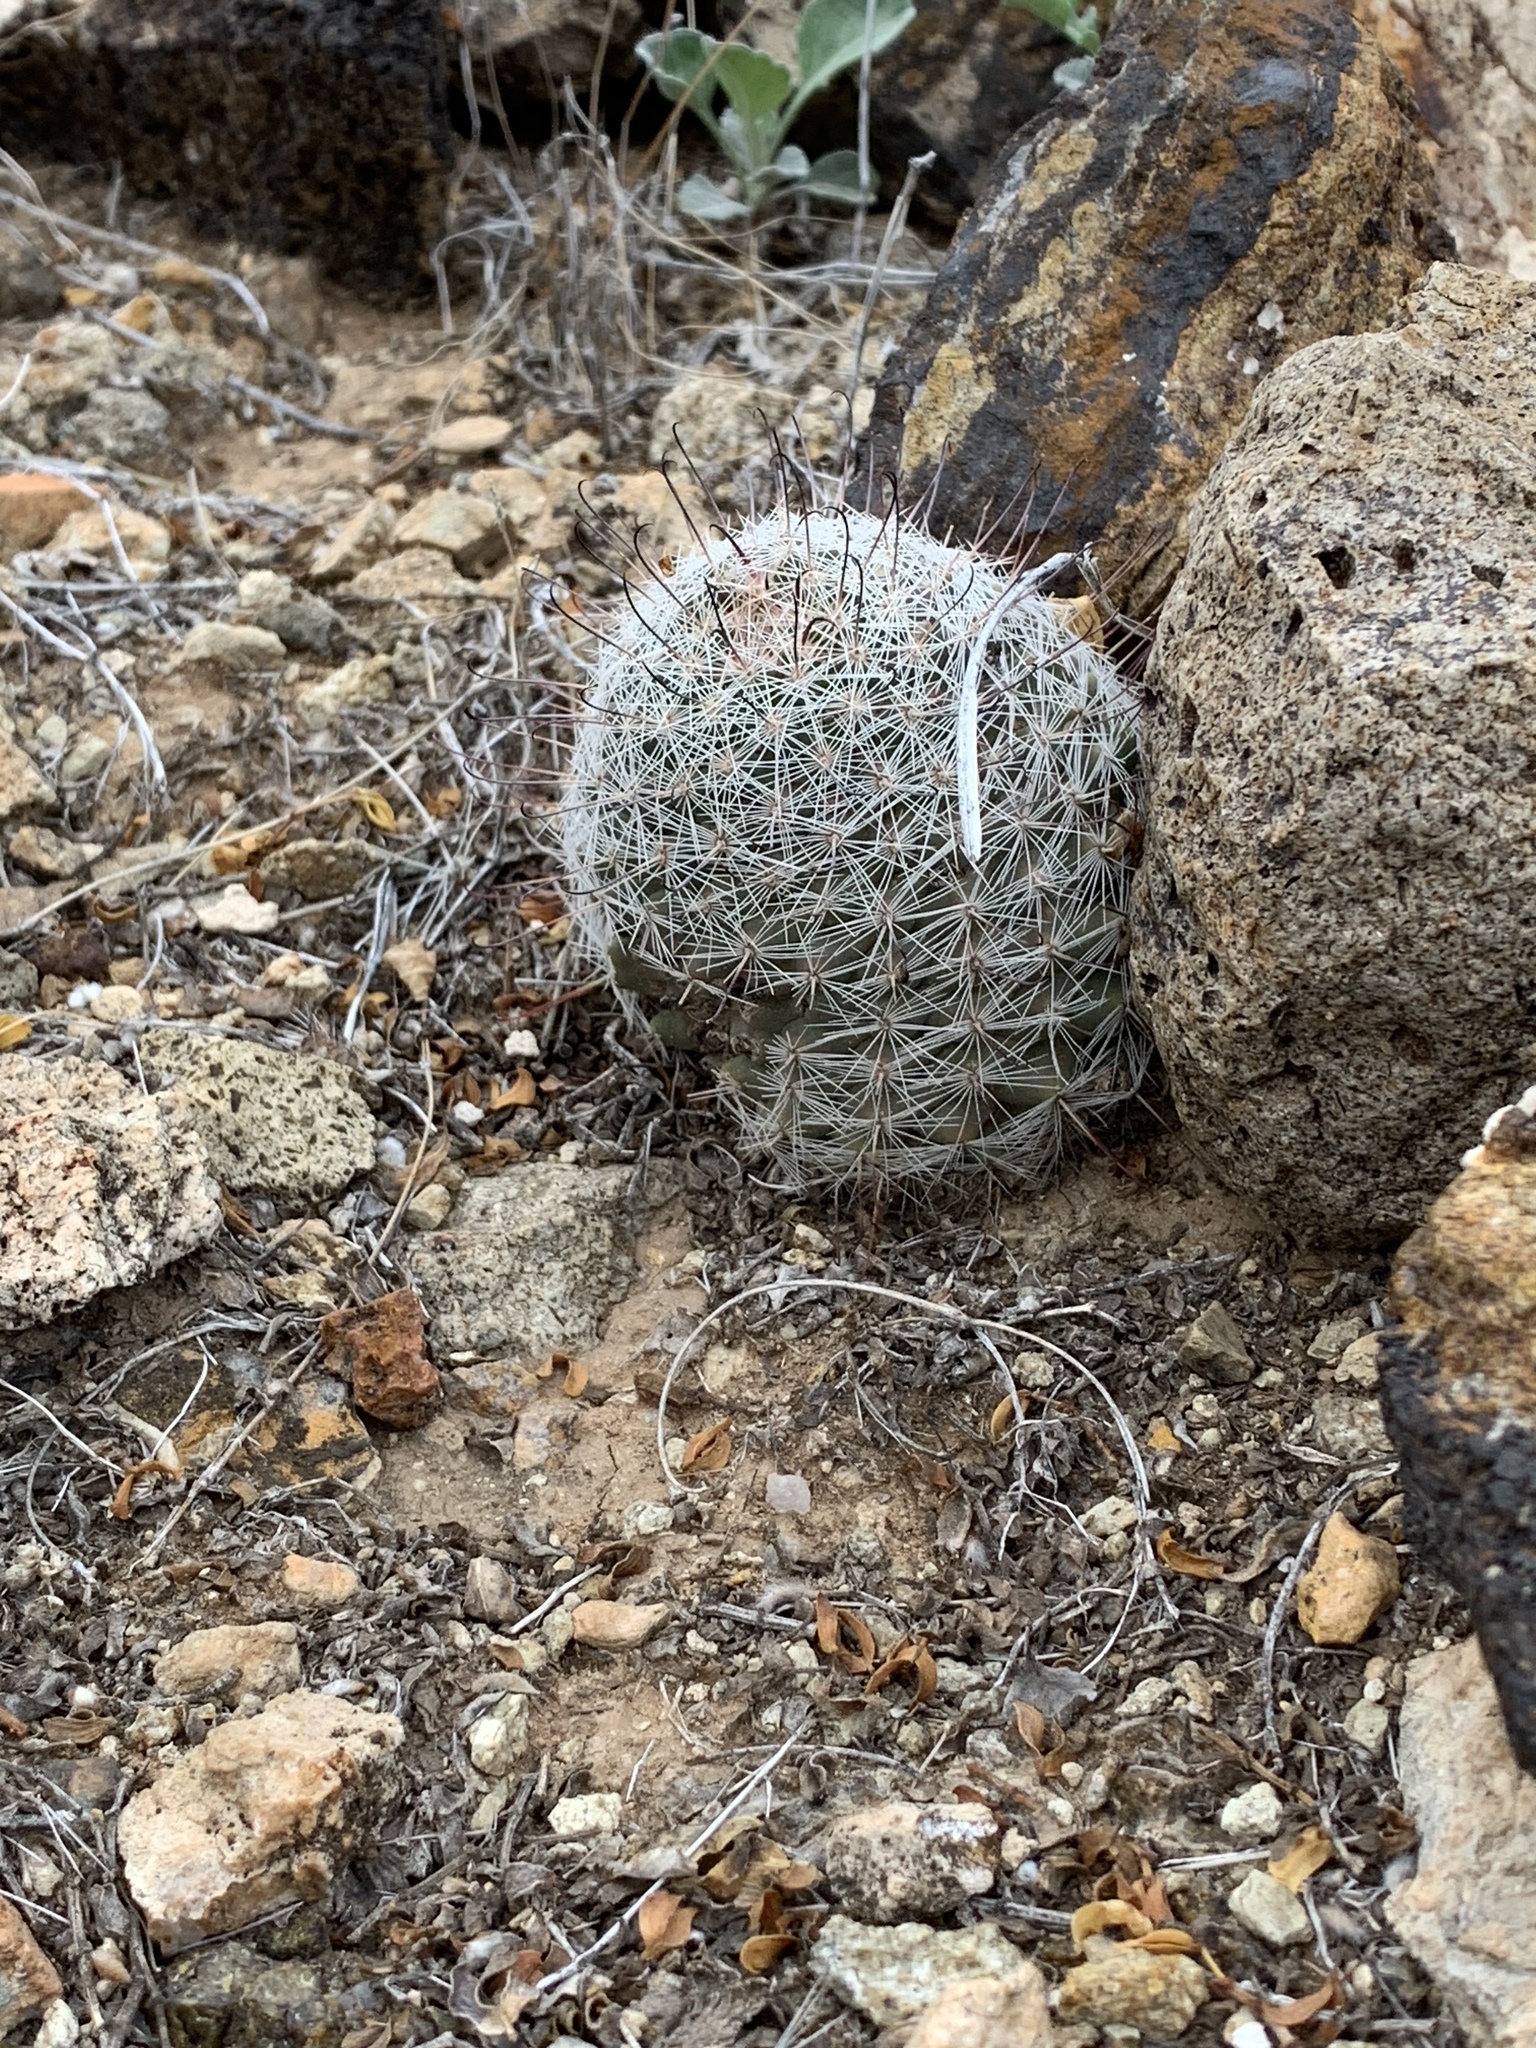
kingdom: Plantae
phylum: Tracheophyta
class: Magnoliopsida
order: Caryophyllales
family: Cactaceae
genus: Cochemiea
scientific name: Cochemiea grahamii
